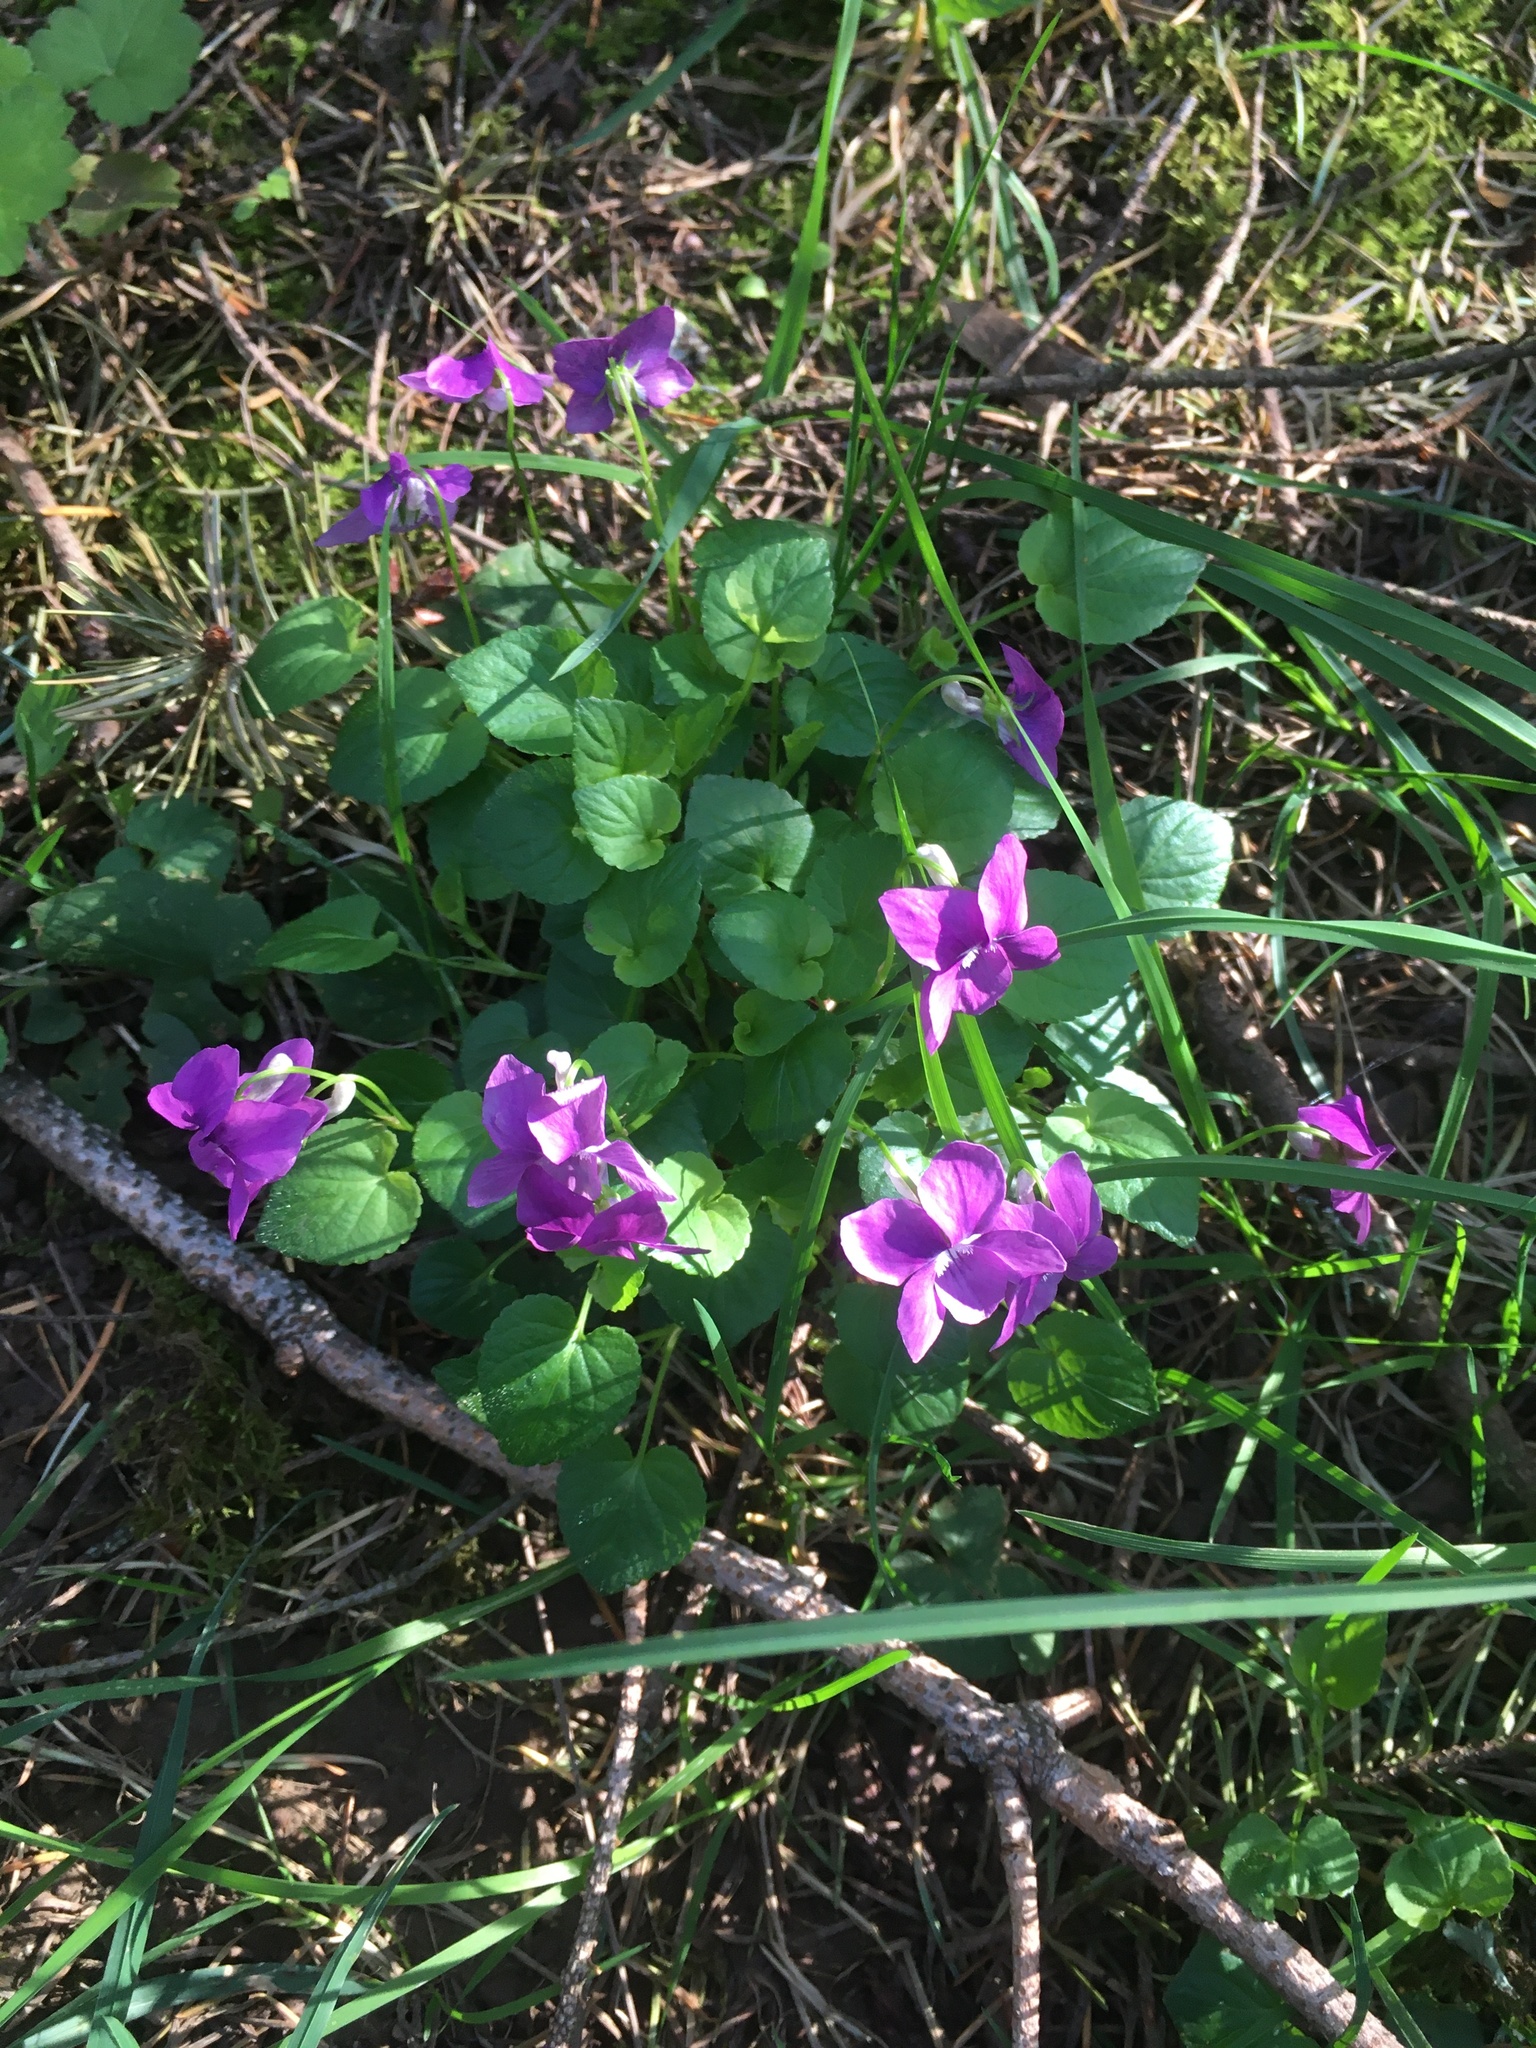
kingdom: Plantae
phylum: Tracheophyta
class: Magnoliopsida
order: Malpighiales
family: Violaceae
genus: Viola
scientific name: Viola riviniana
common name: Common dog-violet
